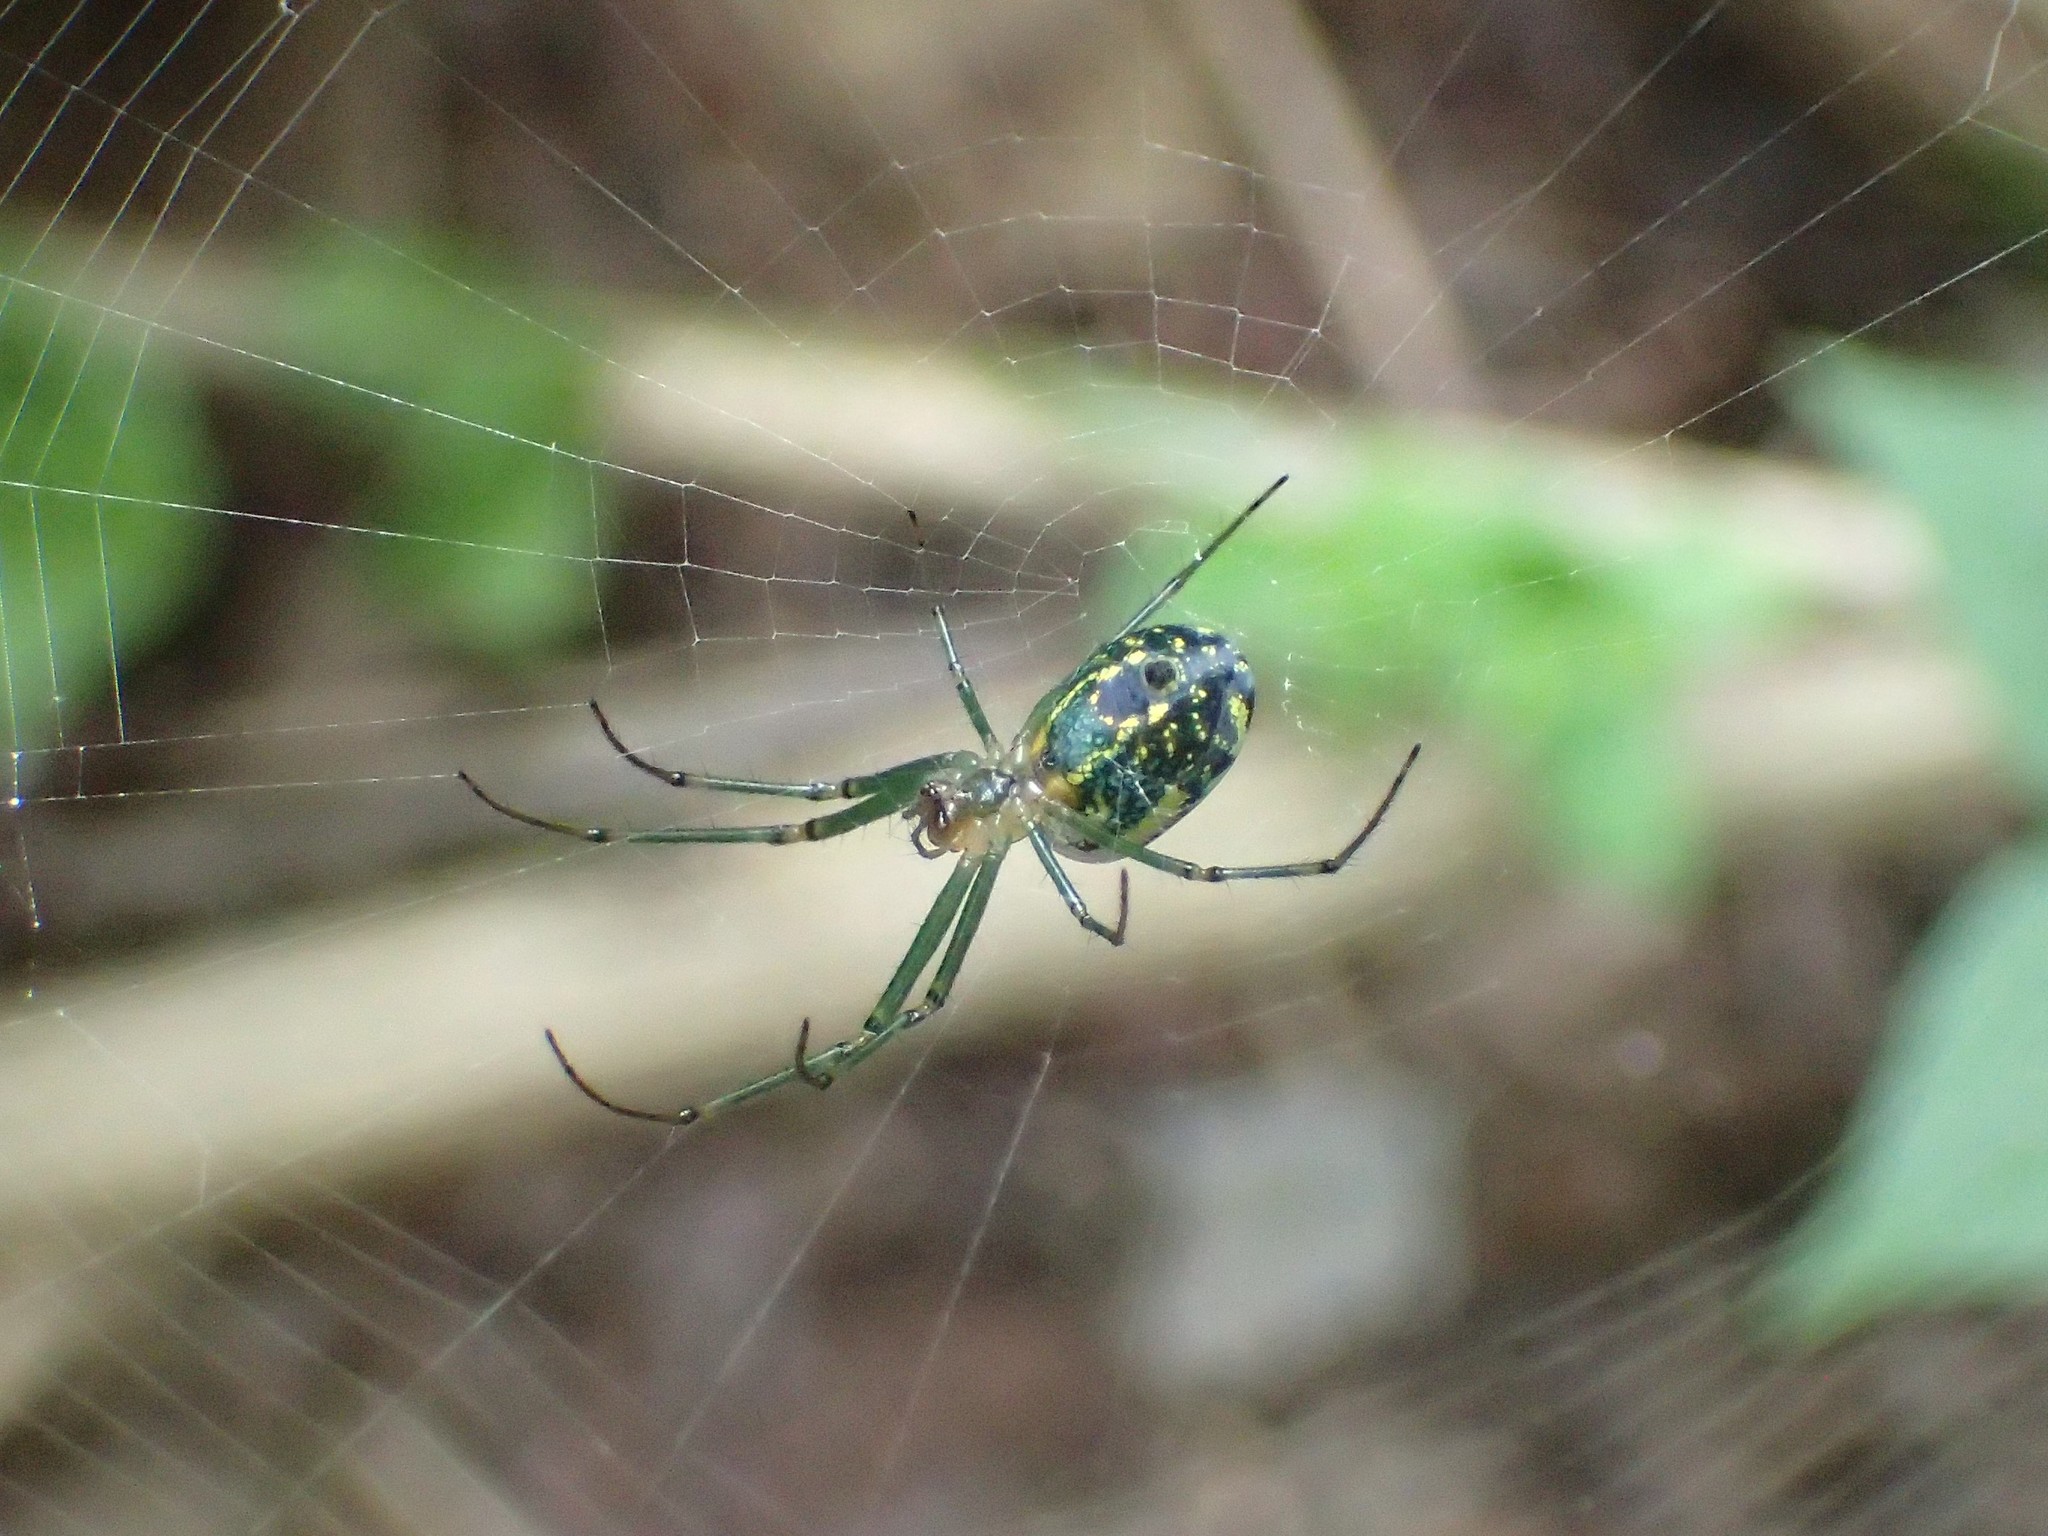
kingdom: Animalia
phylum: Arthropoda
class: Arachnida
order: Araneae
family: Tetragnathidae
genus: Leucauge
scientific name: Leucauge venusta
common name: Longjawed orb weavers
